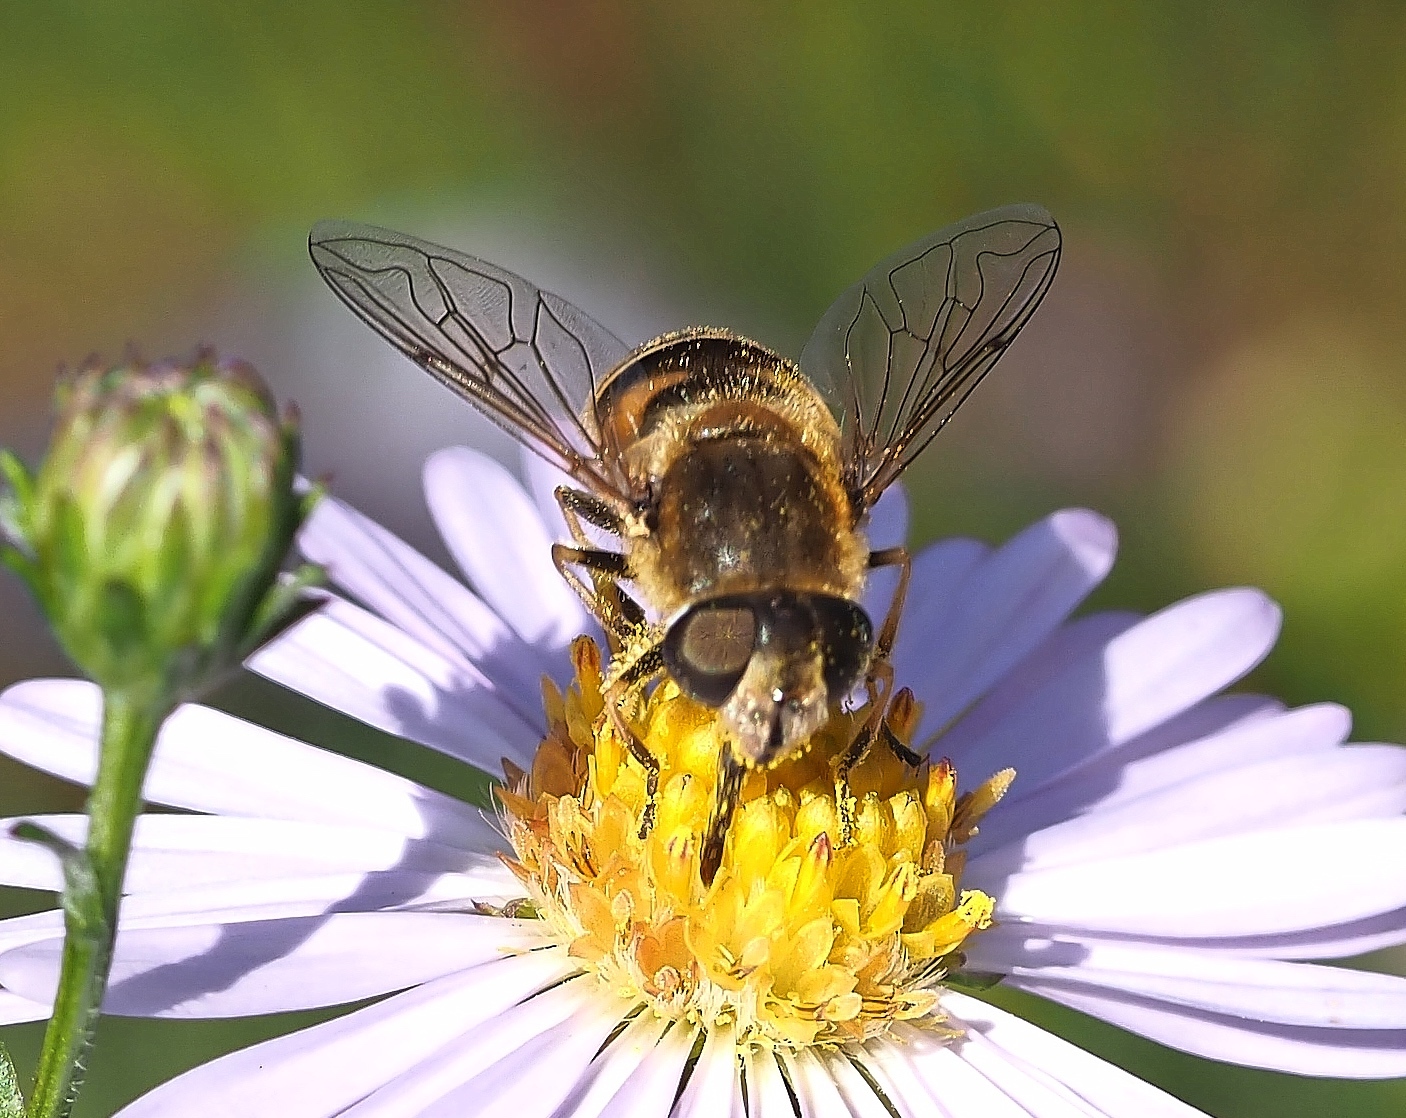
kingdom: Animalia
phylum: Arthropoda
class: Insecta
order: Diptera
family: Syrphidae
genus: Eristalis
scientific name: Eristalis nemorum
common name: Orange-spined drone fly
